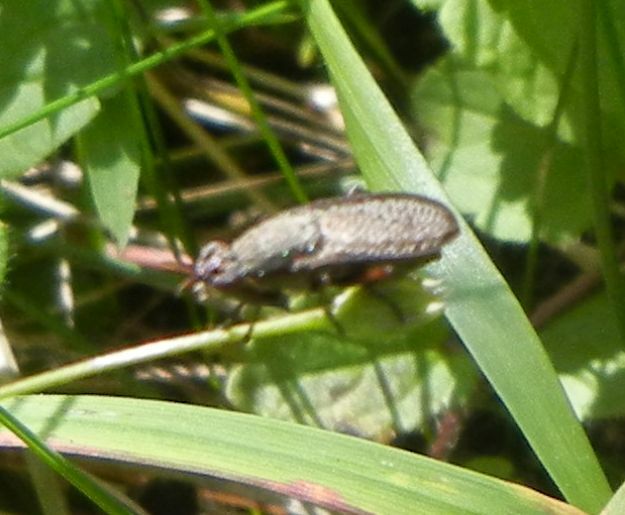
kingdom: Animalia
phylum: Arthropoda
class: Insecta
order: Diptera
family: Sciomyzidae
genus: Coremacera
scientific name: Coremacera marginata
